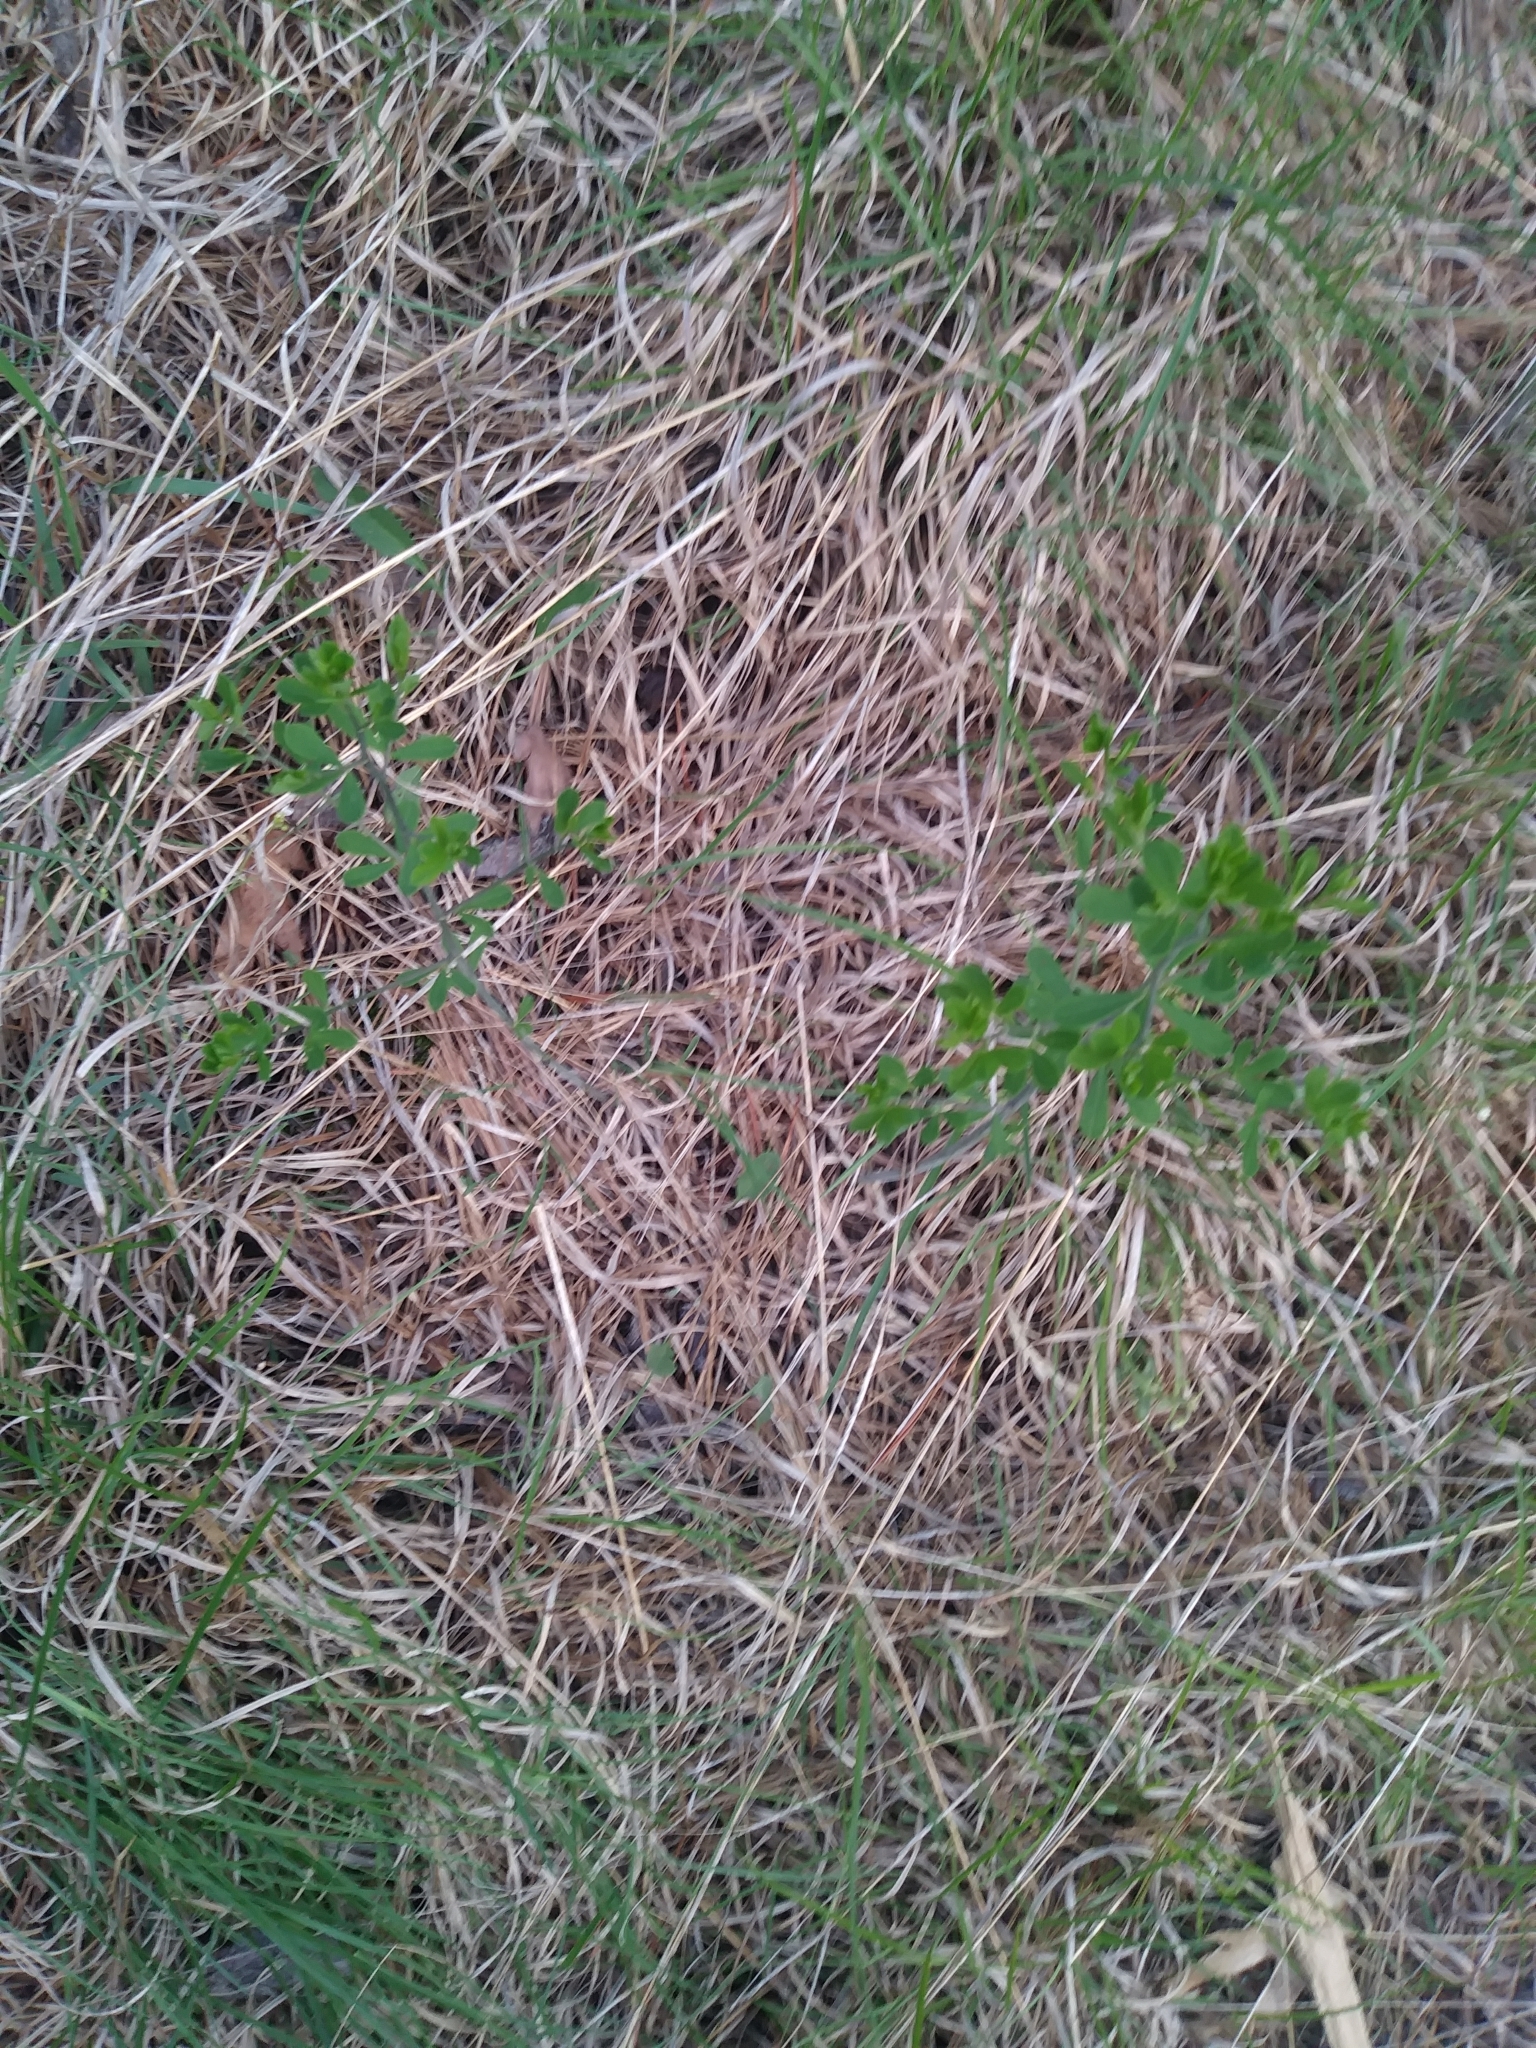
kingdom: Plantae
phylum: Tracheophyta
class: Magnoliopsida
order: Fabales
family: Fabaceae
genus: Baptisia
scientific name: Baptisia tinctoria
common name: Wild indigo
